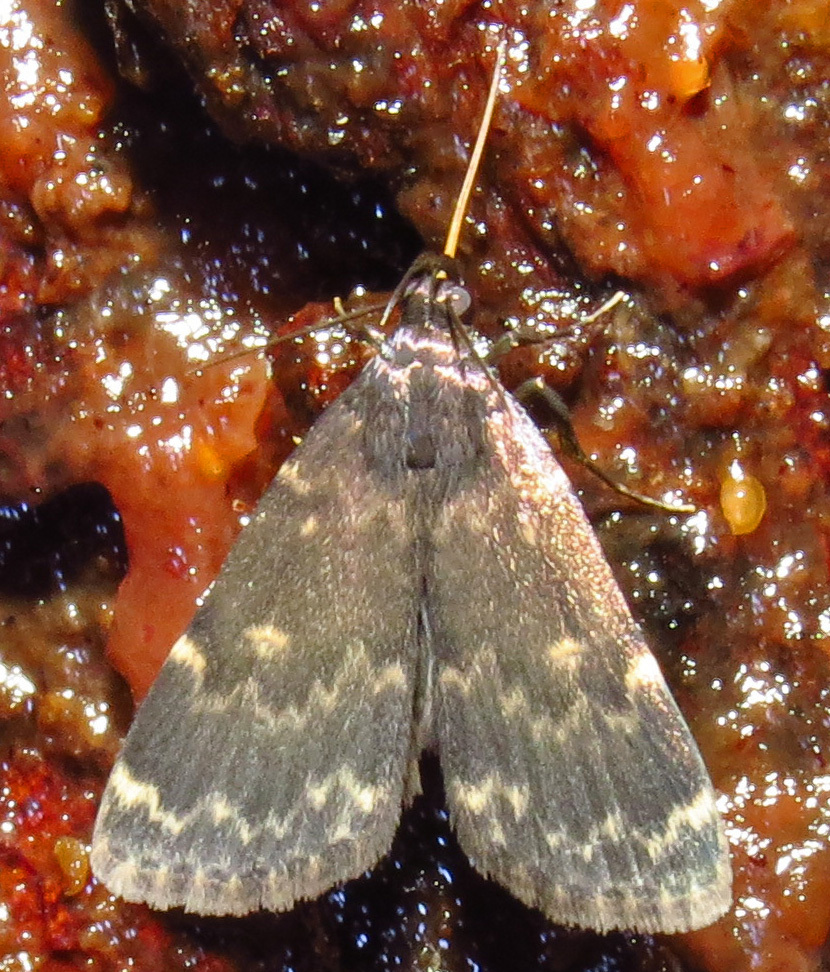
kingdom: Animalia
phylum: Arthropoda
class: Insecta
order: Lepidoptera
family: Erebidae
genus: Idia
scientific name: Idia lubricalis
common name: Twin-striped tabby
